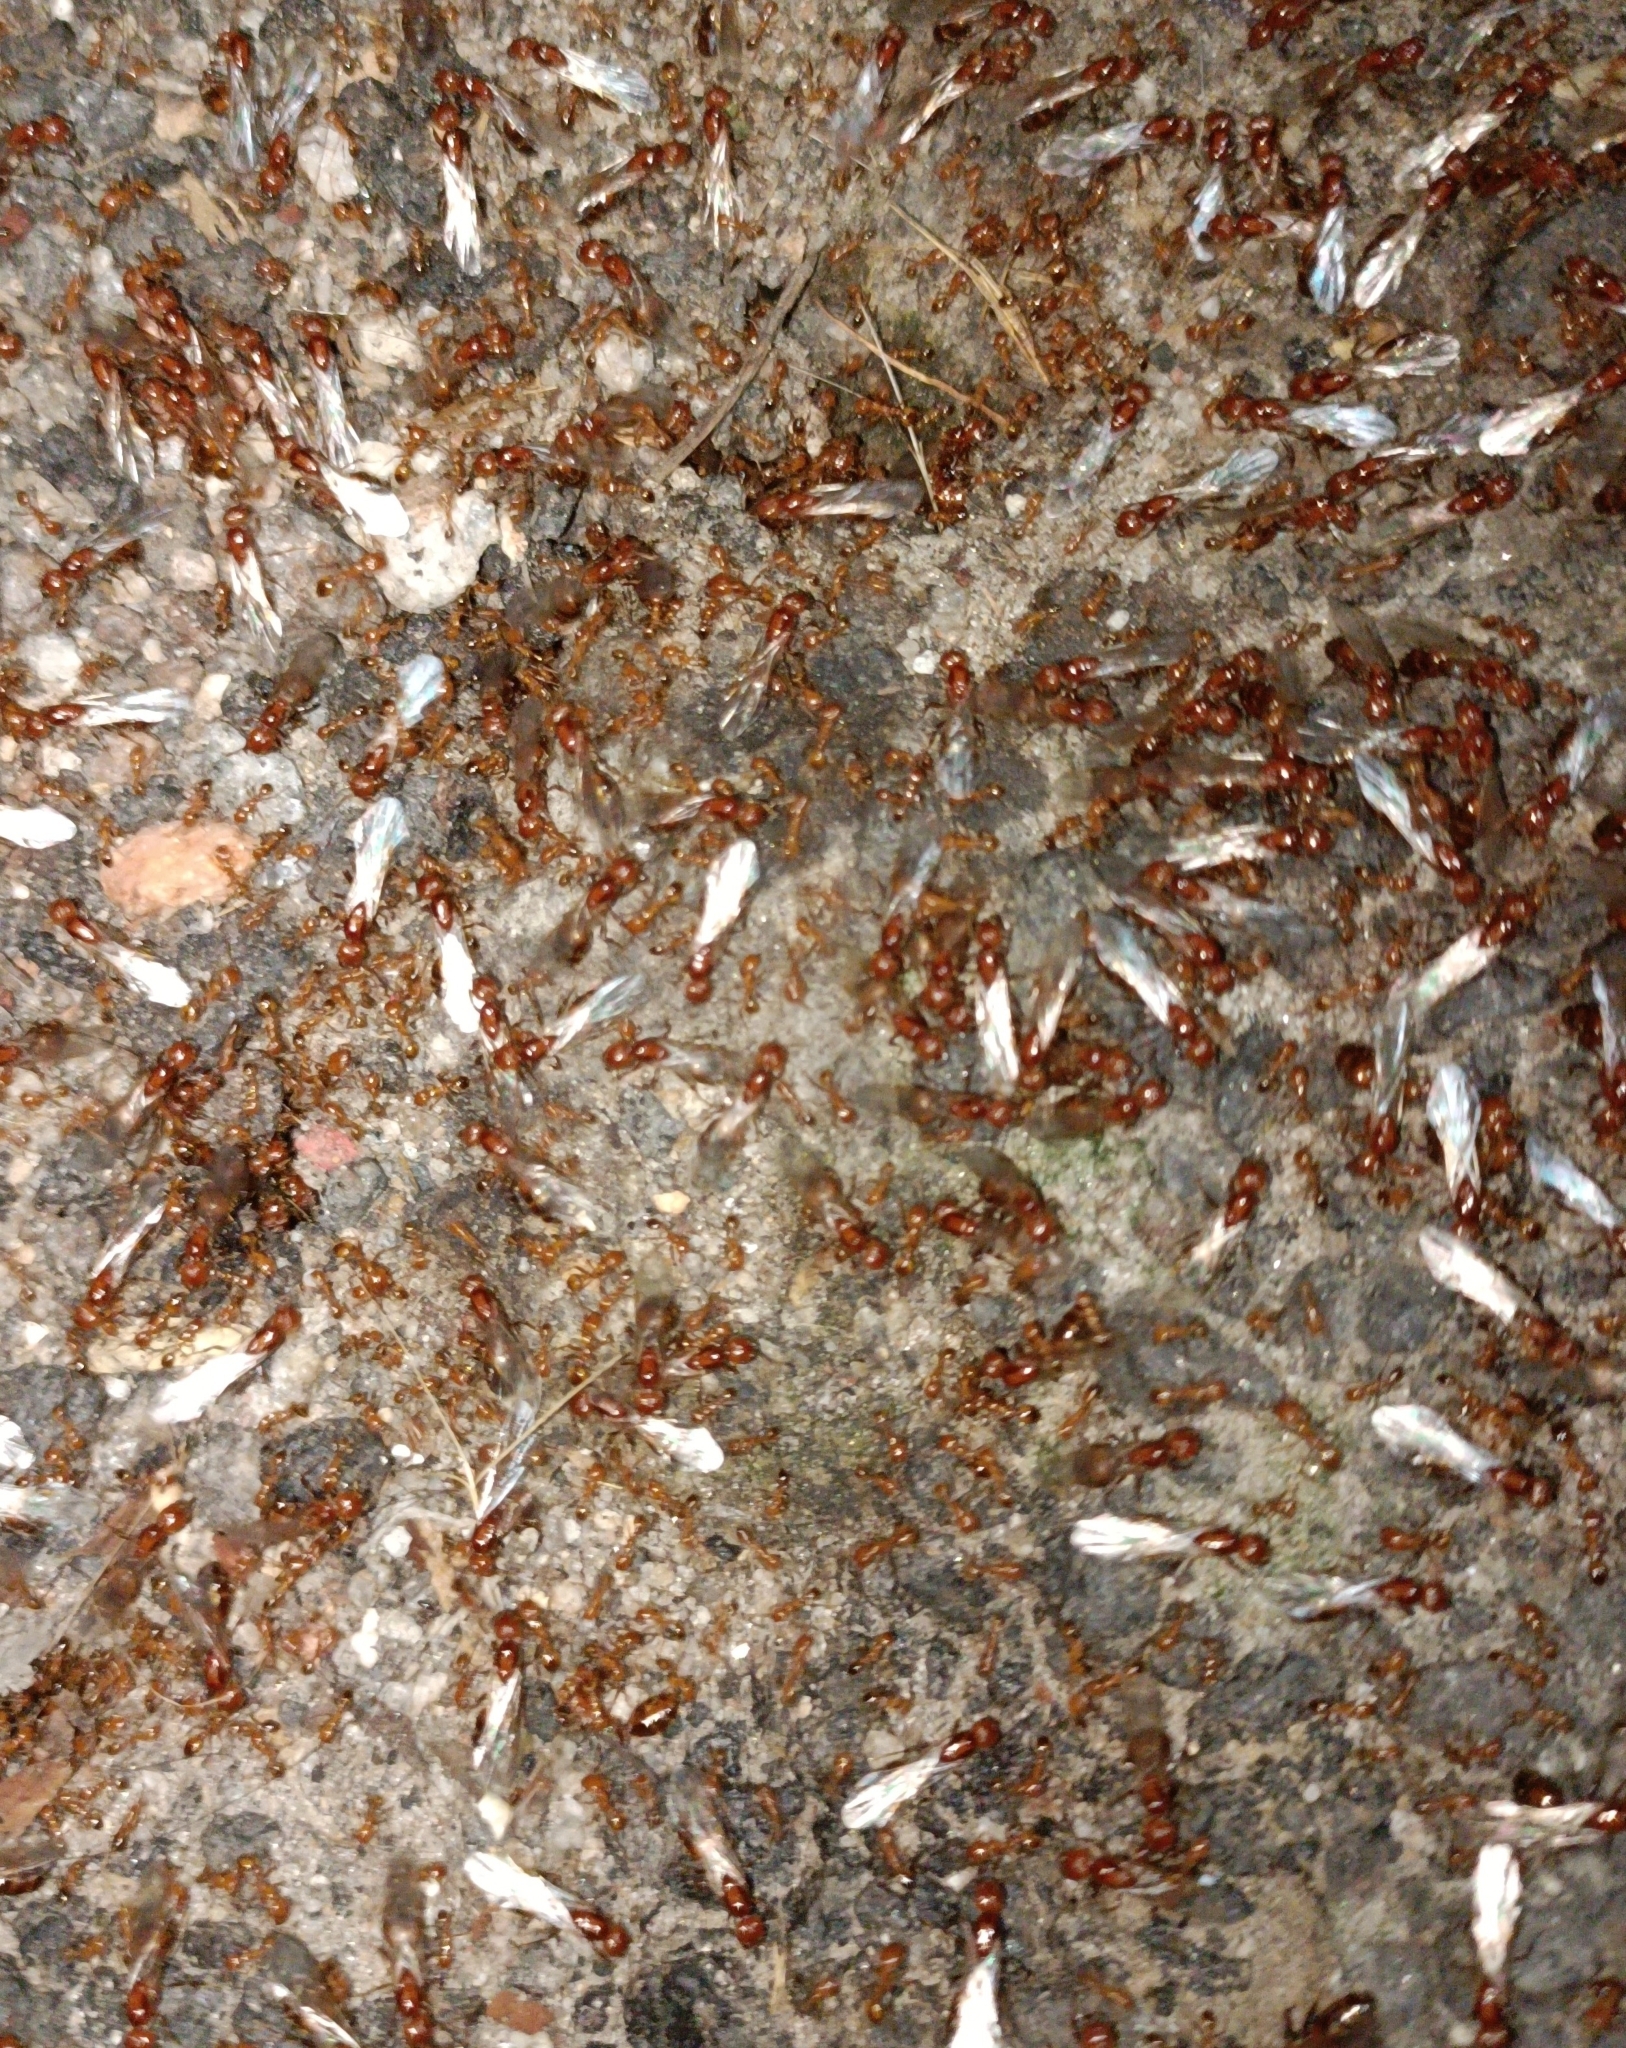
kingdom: Animalia
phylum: Arthropoda
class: Insecta
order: Hymenoptera
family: Formicidae
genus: Solenopsis
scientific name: Solenopsis geminata
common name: Tropical fire ant
